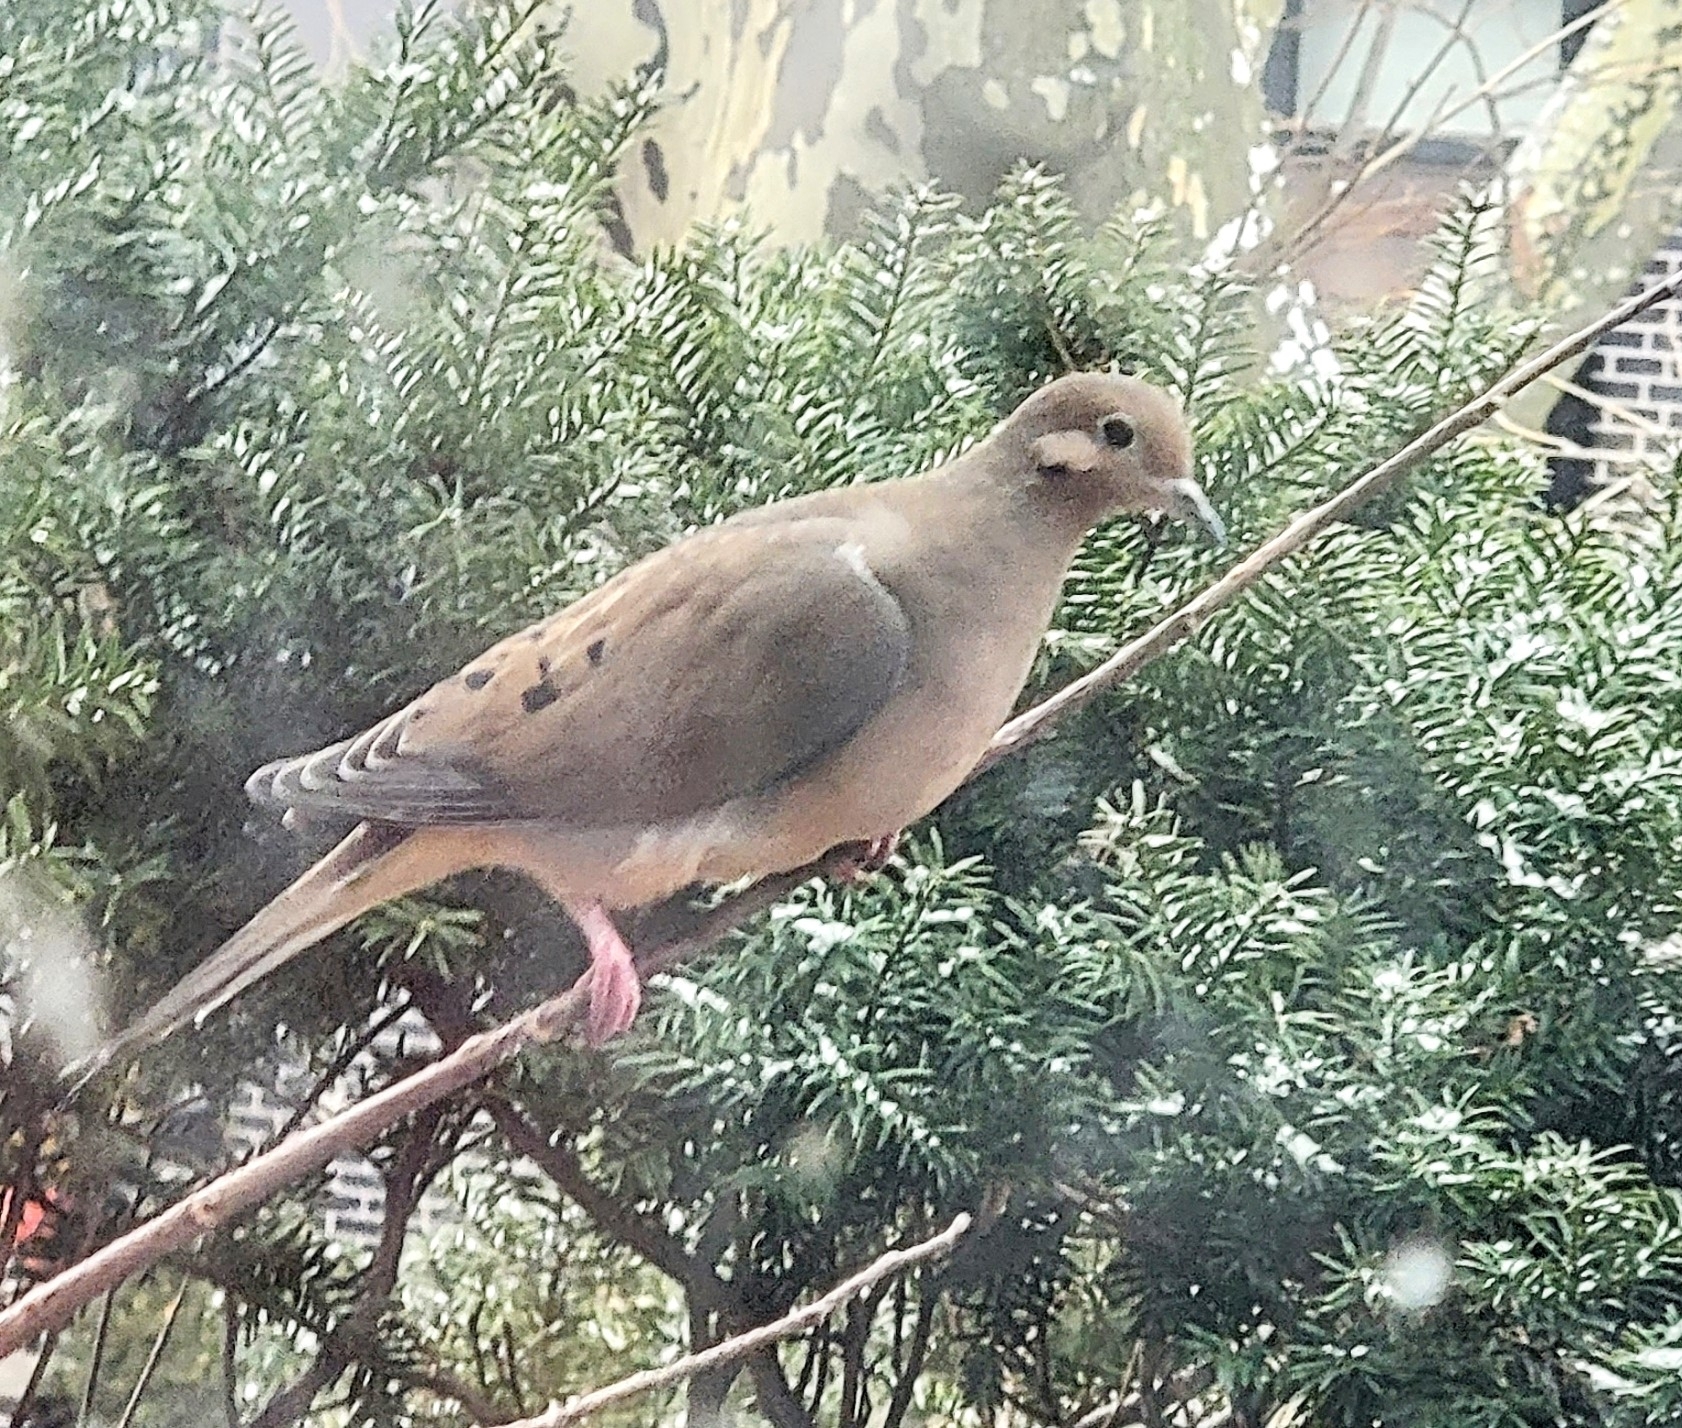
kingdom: Animalia
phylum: Chordata
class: Aves
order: Columbiformes
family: Columbidae
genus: Zenaida
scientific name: Zenaida macroura
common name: Mourning dove
